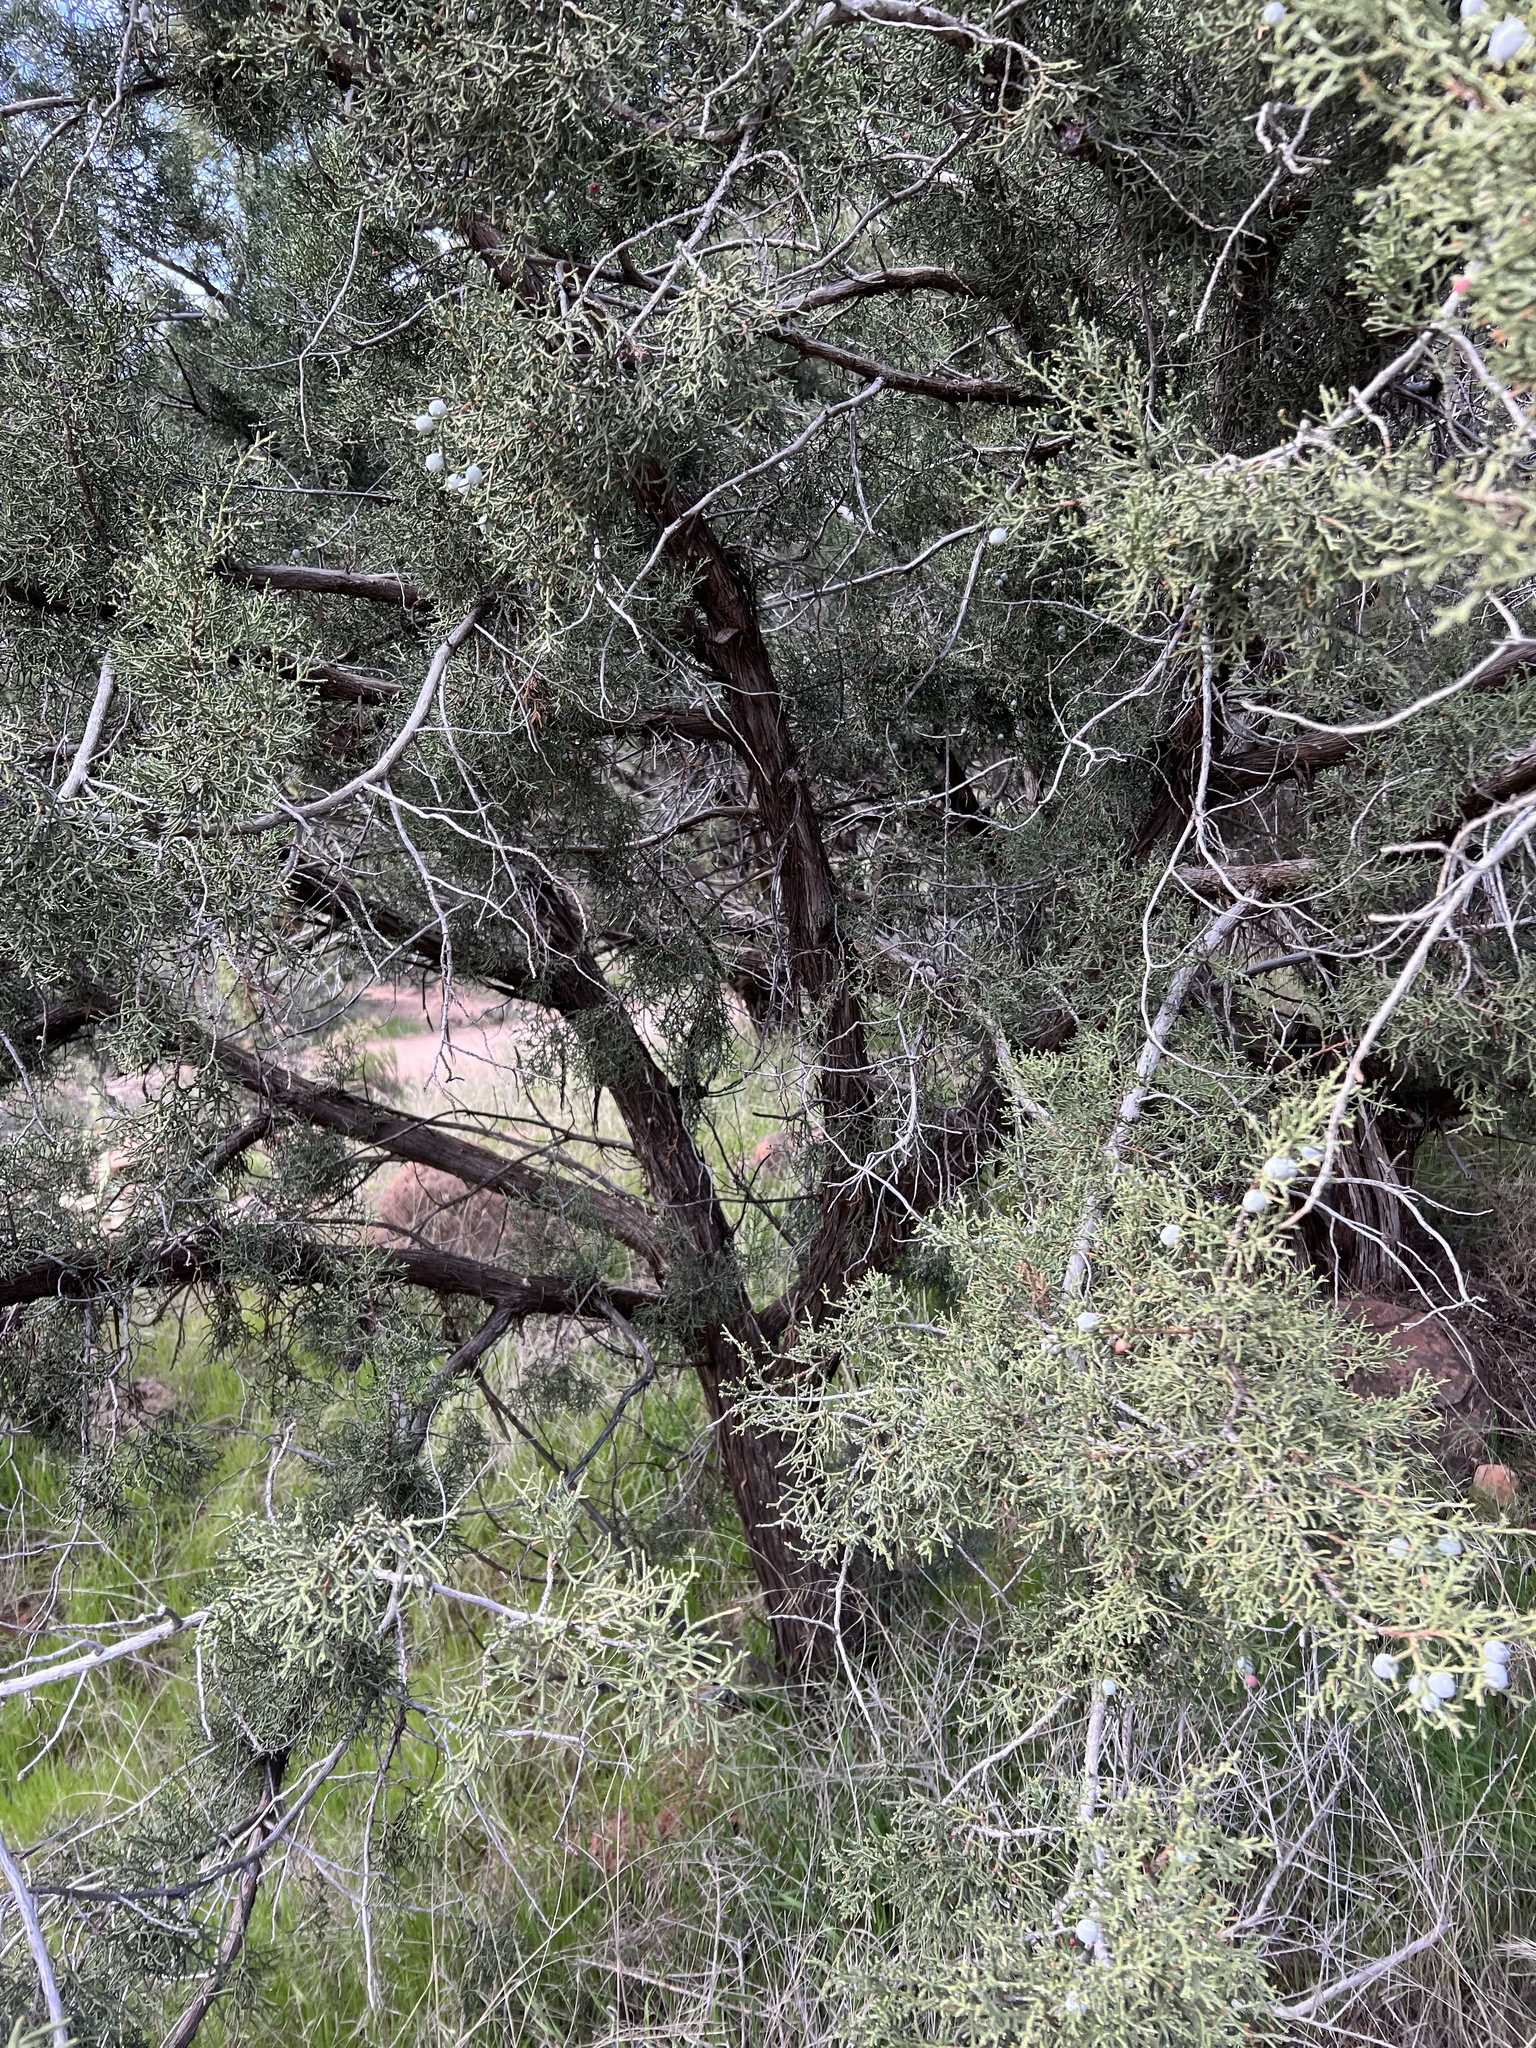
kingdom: Plantae
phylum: Tracheophyta
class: Pinopsida
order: Pinales
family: Cupressaceae
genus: Juniperus
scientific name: Juniperus osteosperma
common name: Utah juniper
